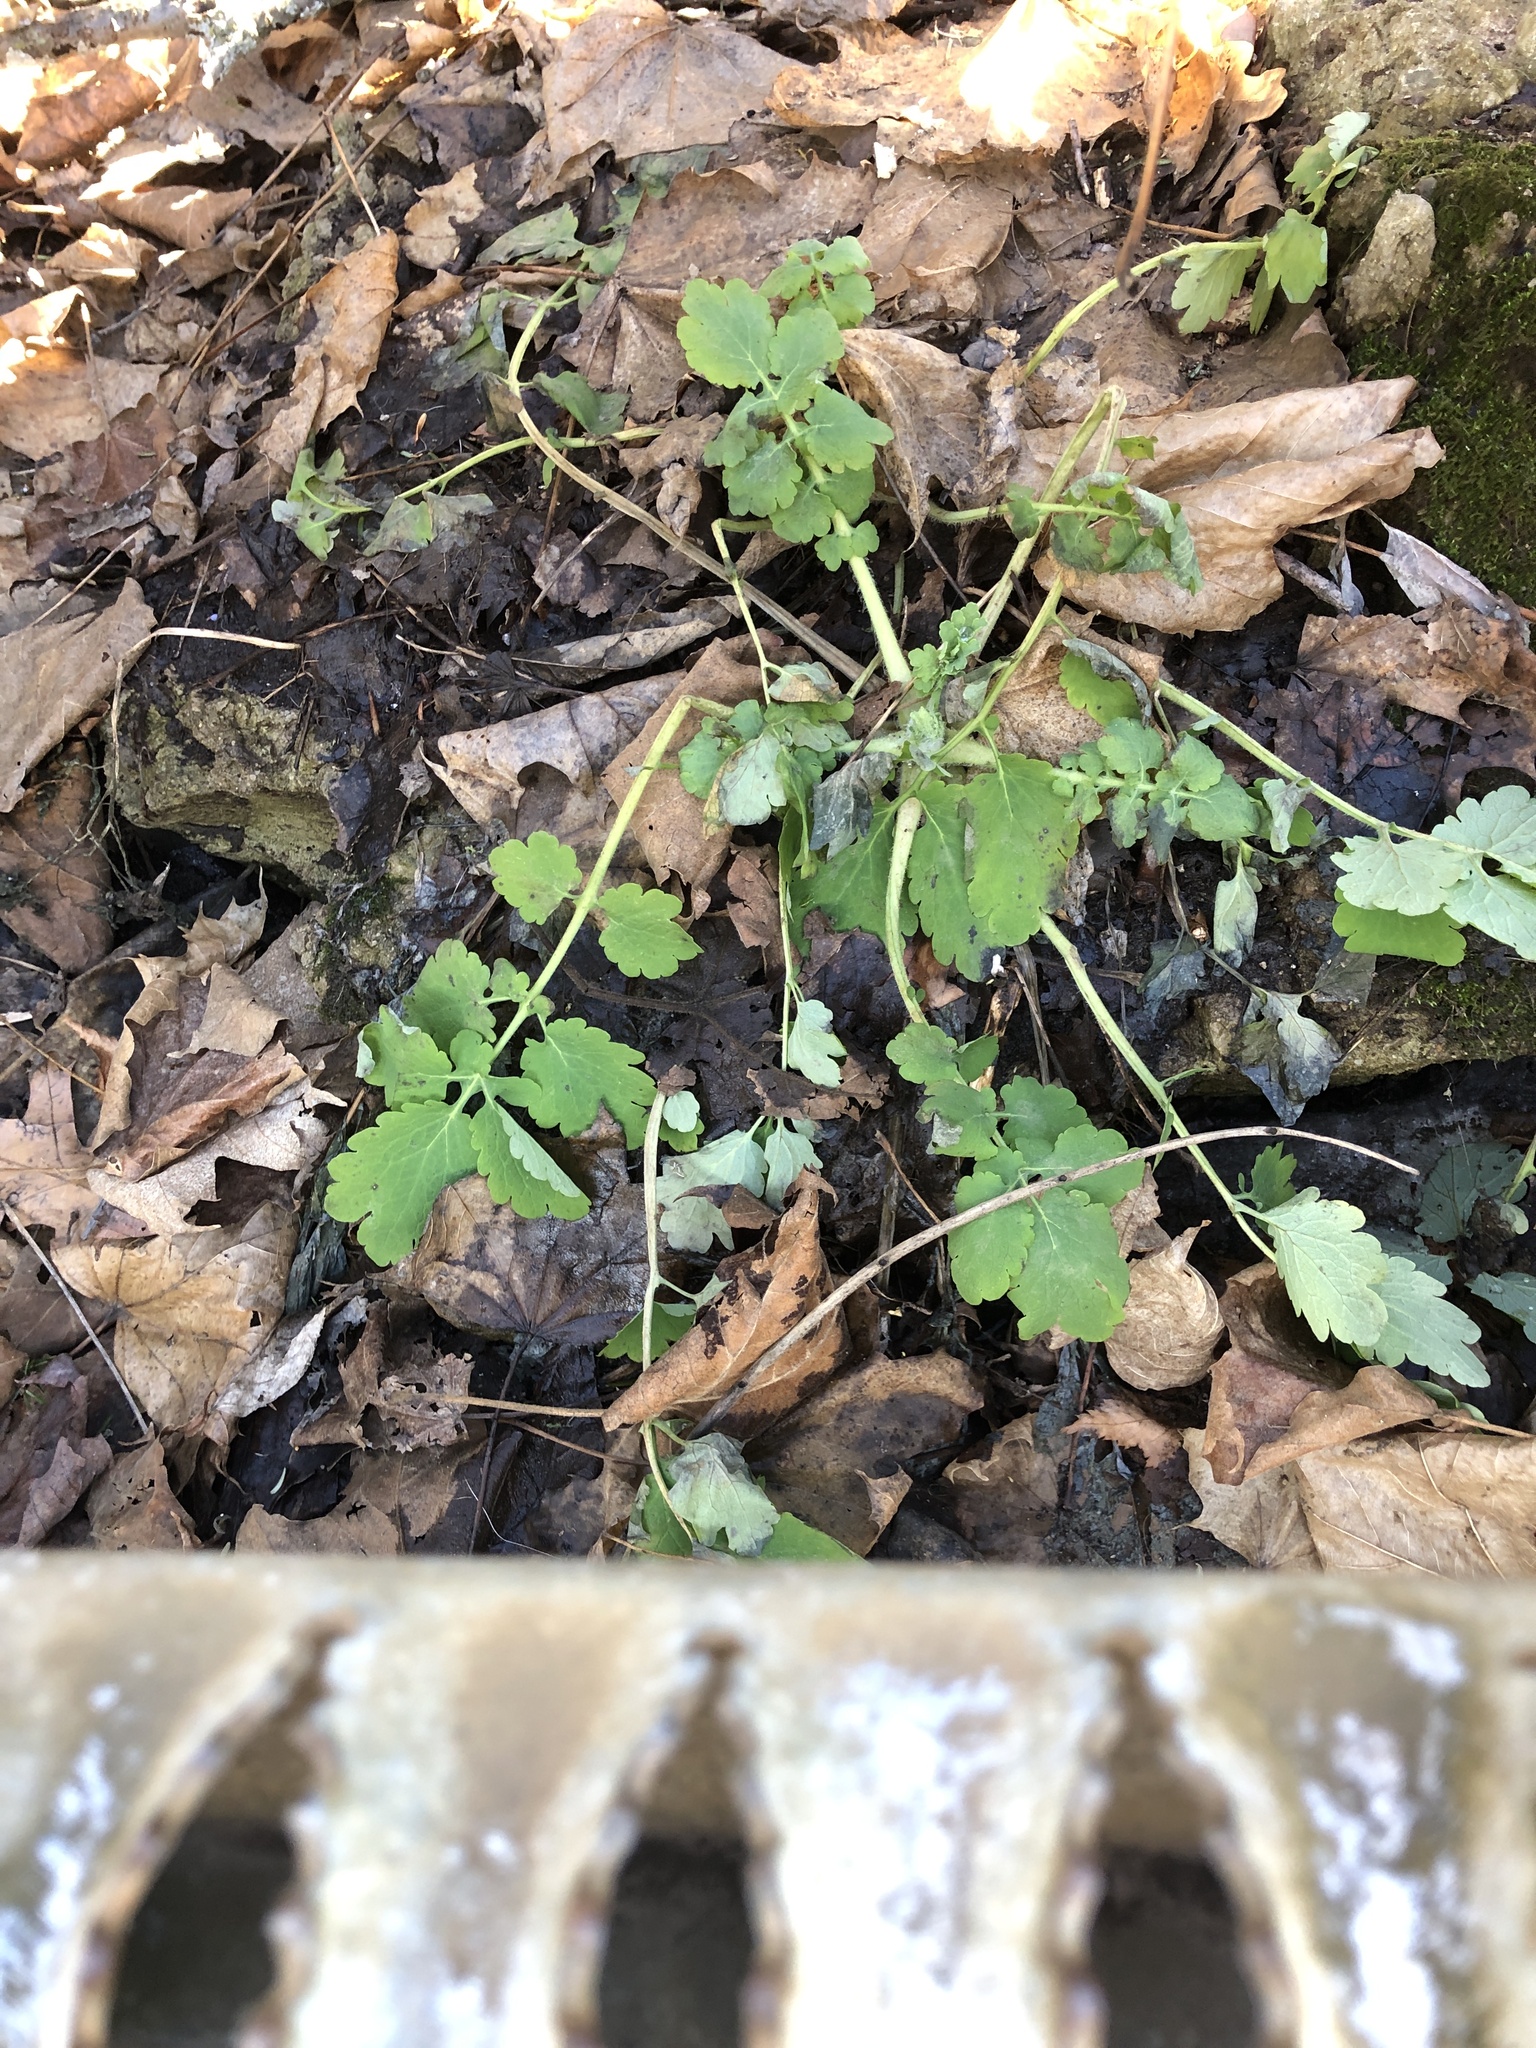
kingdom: Plantae
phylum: Tracheophyta
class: Magnoliopsida
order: Ranunculales
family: Papaveraceae
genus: Chelidonium
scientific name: Chelidonium majus
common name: Greater celandine
